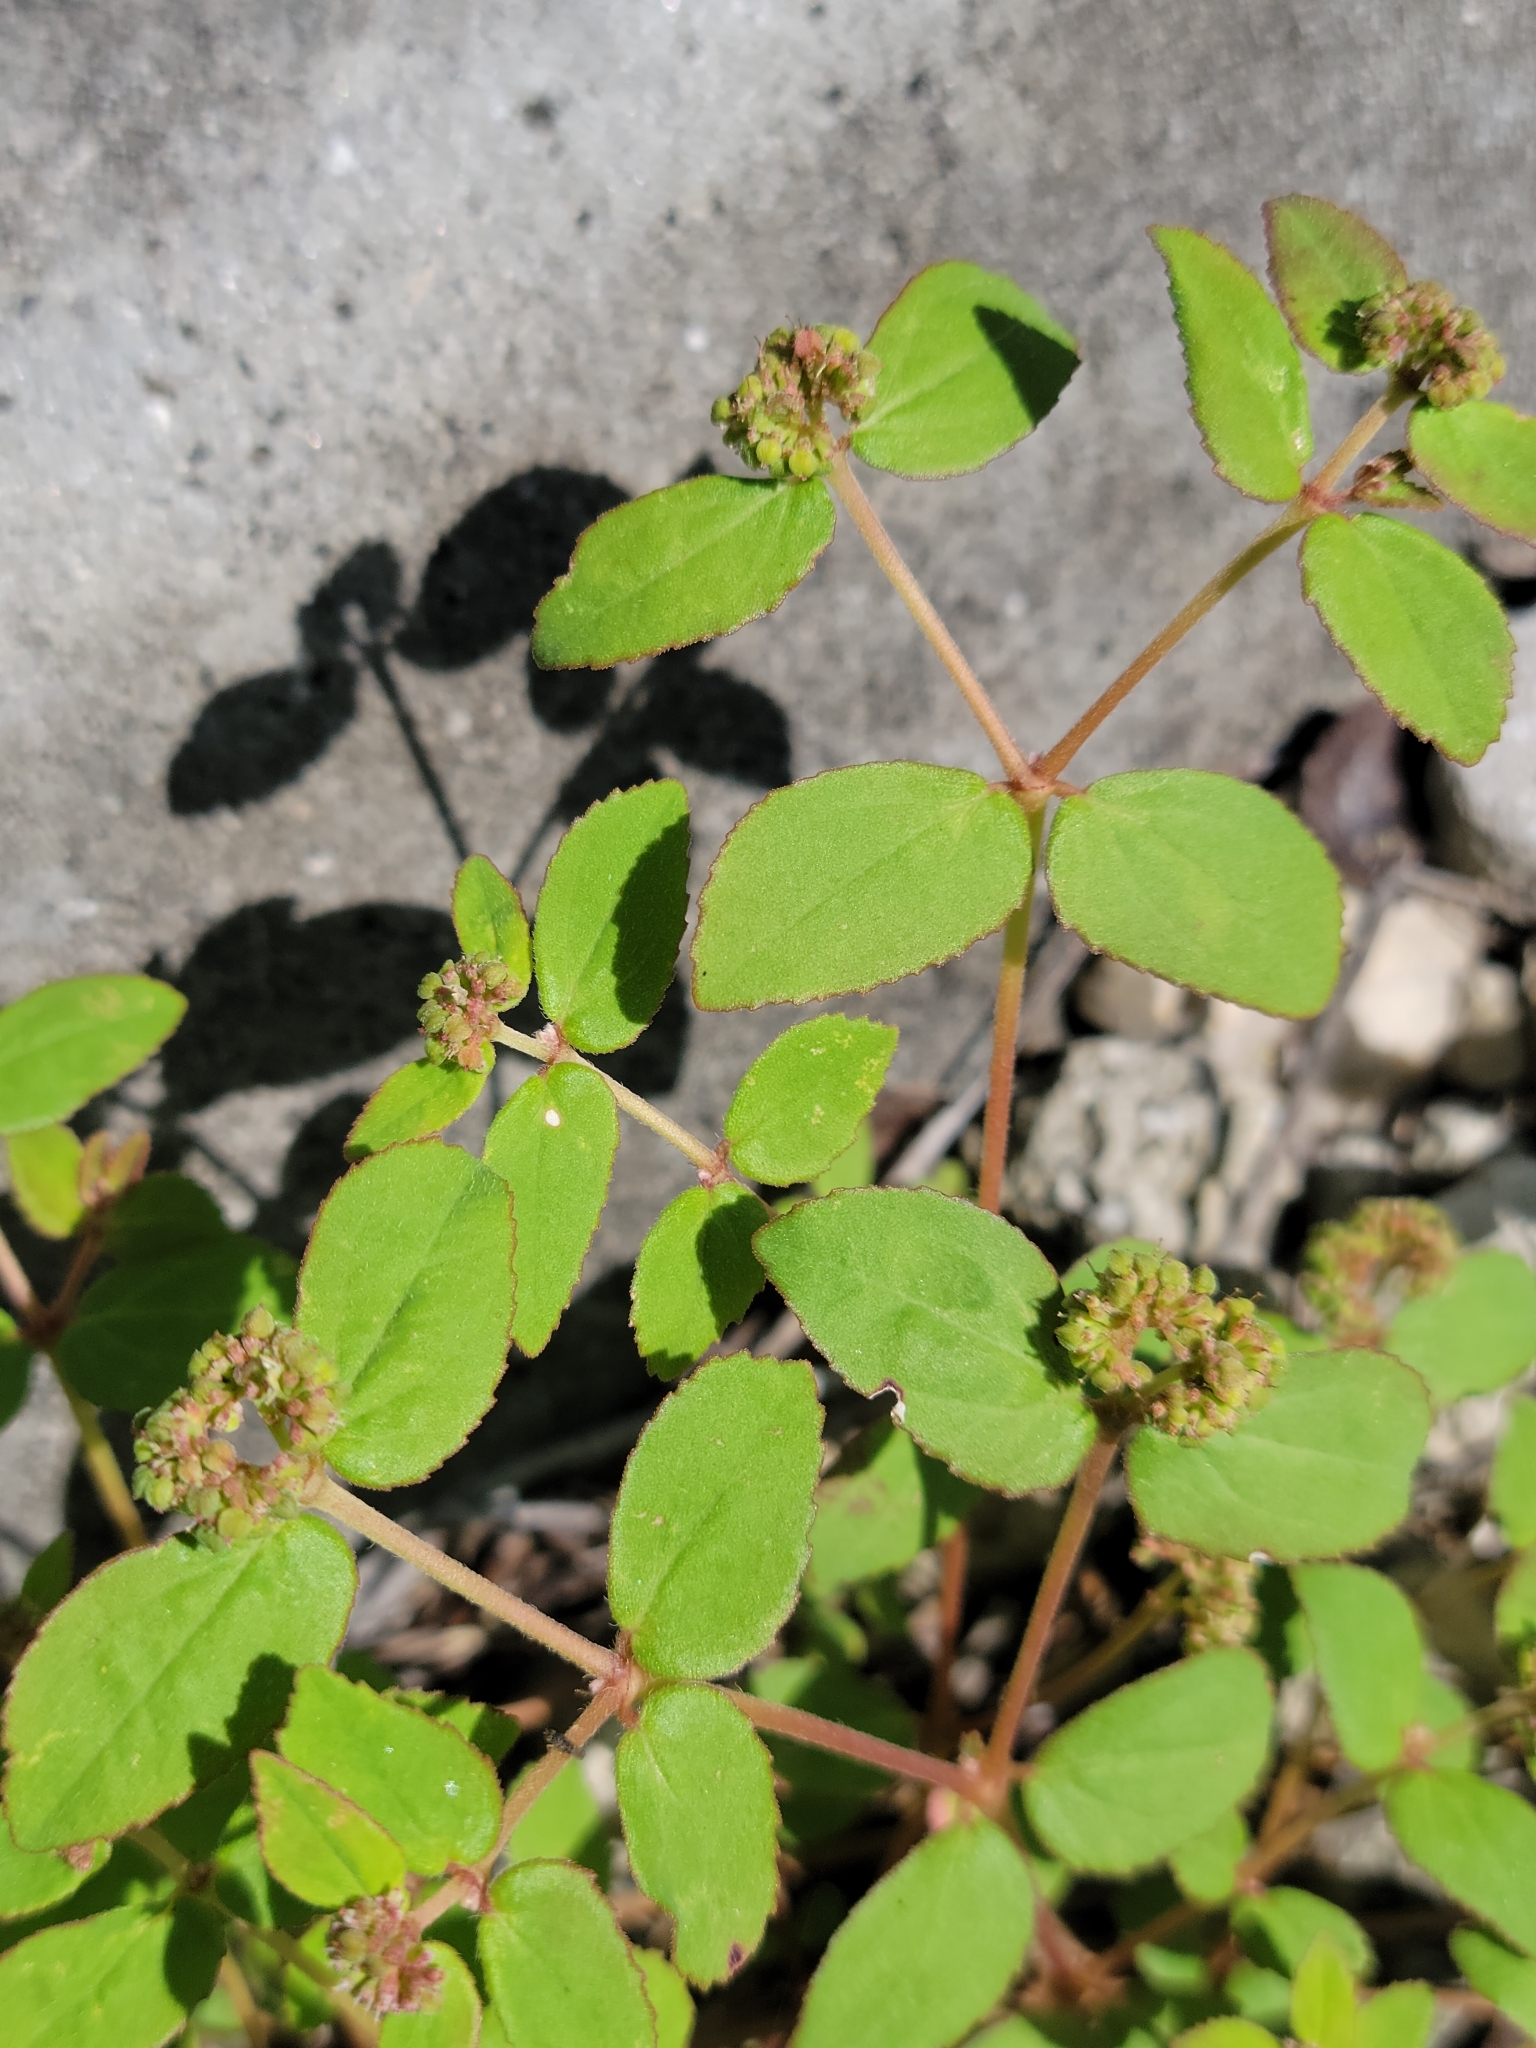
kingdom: Plantae
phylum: Tracheophyta
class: Magnoliopsida
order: Malpighiales
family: Euphorbiaceae
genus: Euphorbia
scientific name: Euphorbia ophthalmica
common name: Florida hammock sandmat
